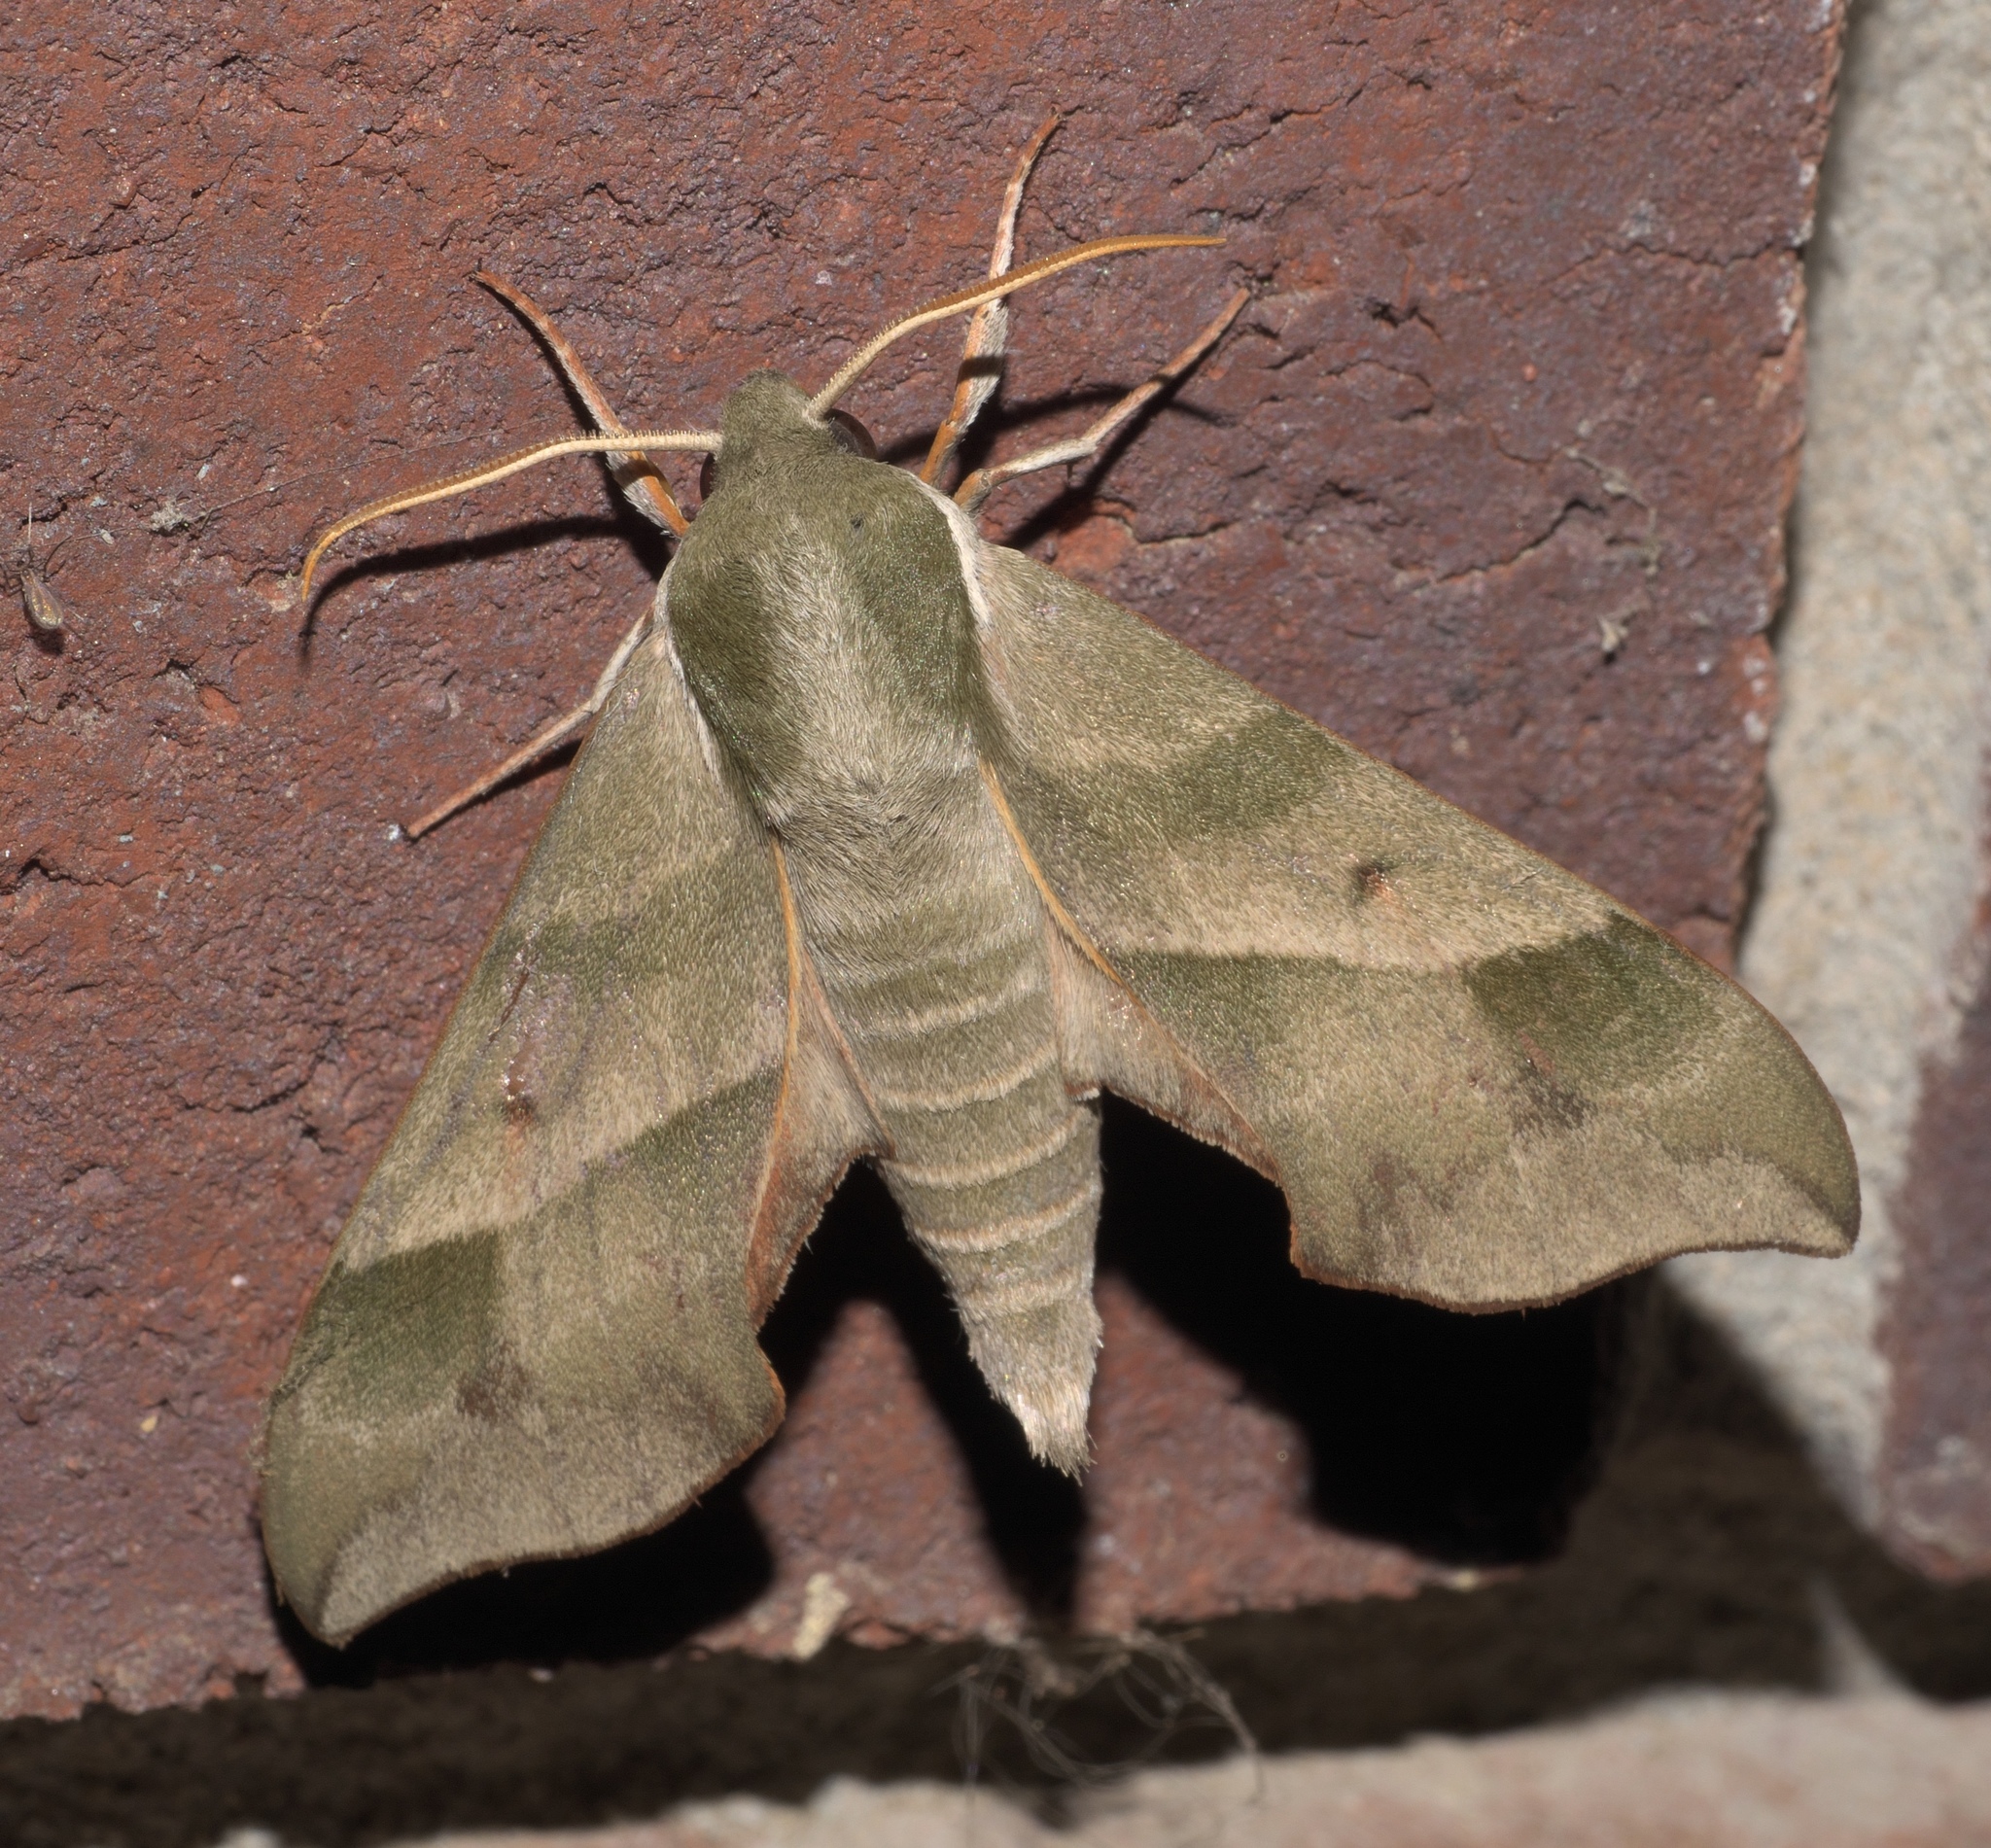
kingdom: Animalia
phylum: Arthropoda
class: Insecta
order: Lepidoptera
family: Sphingidae
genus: Darapsa
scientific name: Darapsa myron
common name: Hog sphinx
